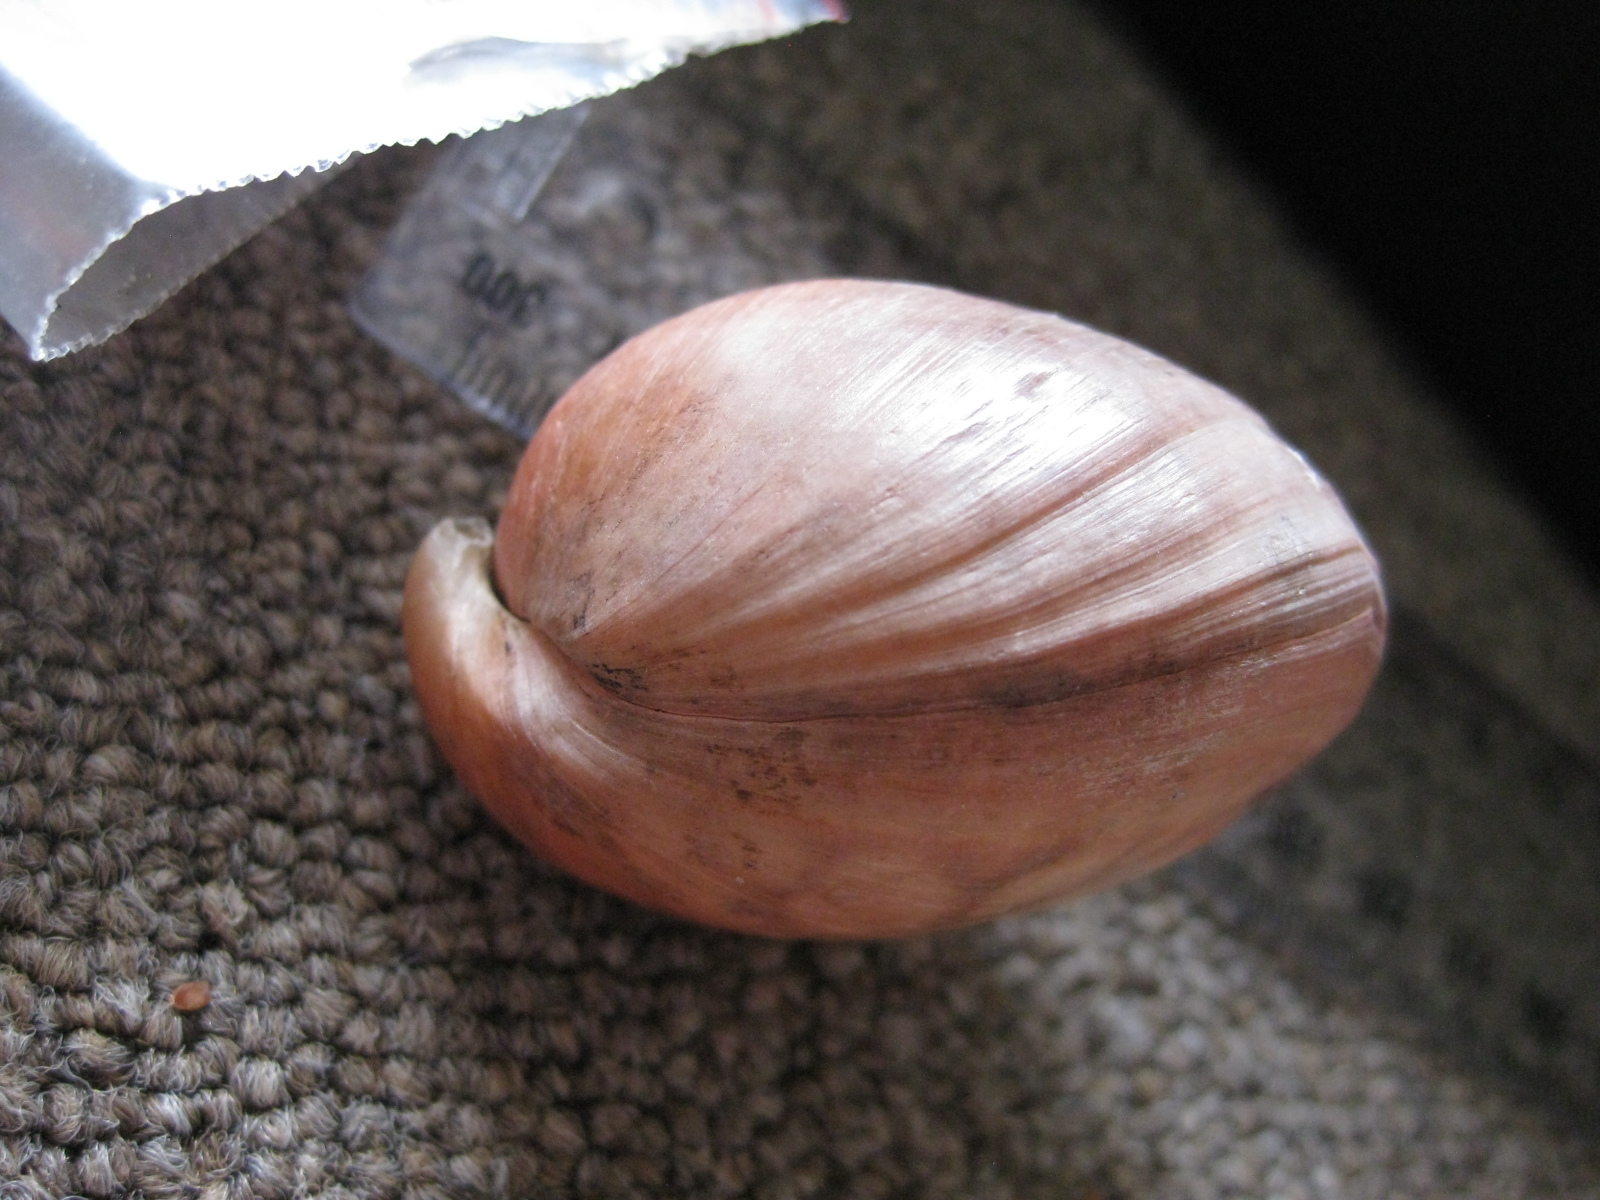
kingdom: Animalia
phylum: Brachiopoda
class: Rhynchonellata
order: Terebratulida
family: Terebratellidae
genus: Neothyris
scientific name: Neothyris lenticularis
